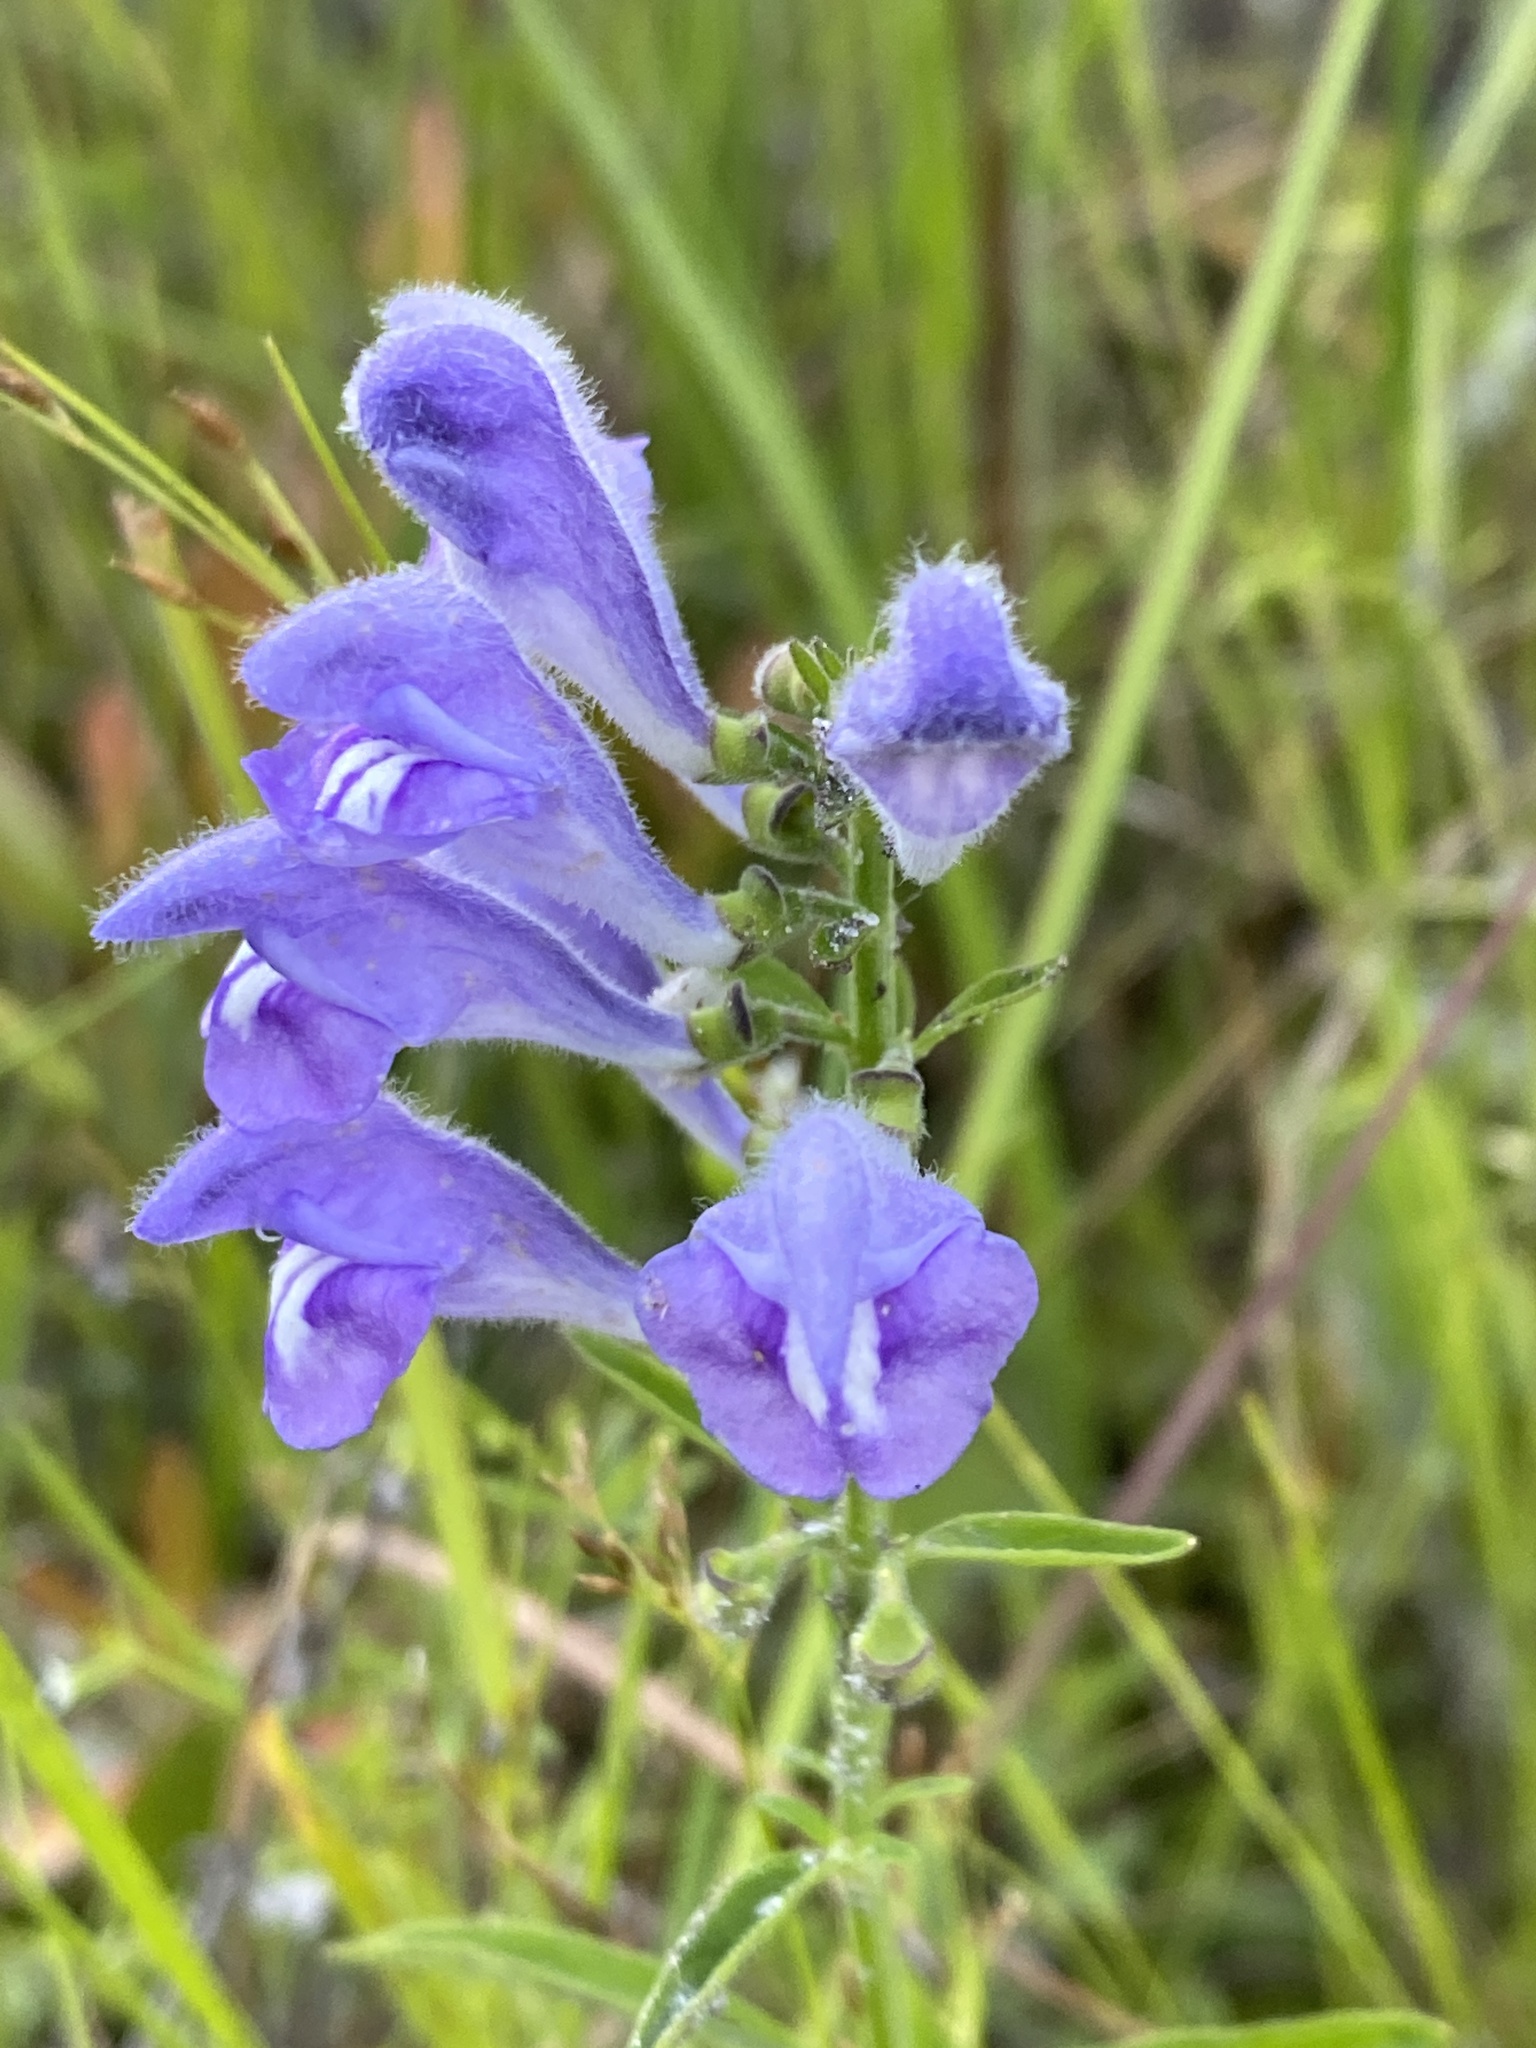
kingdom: Plantae
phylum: Tracheophyta
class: Magnoliopsida
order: Lamiales
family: Lamiaceae
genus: Scutellaria
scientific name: Scutellaria integrifolia
